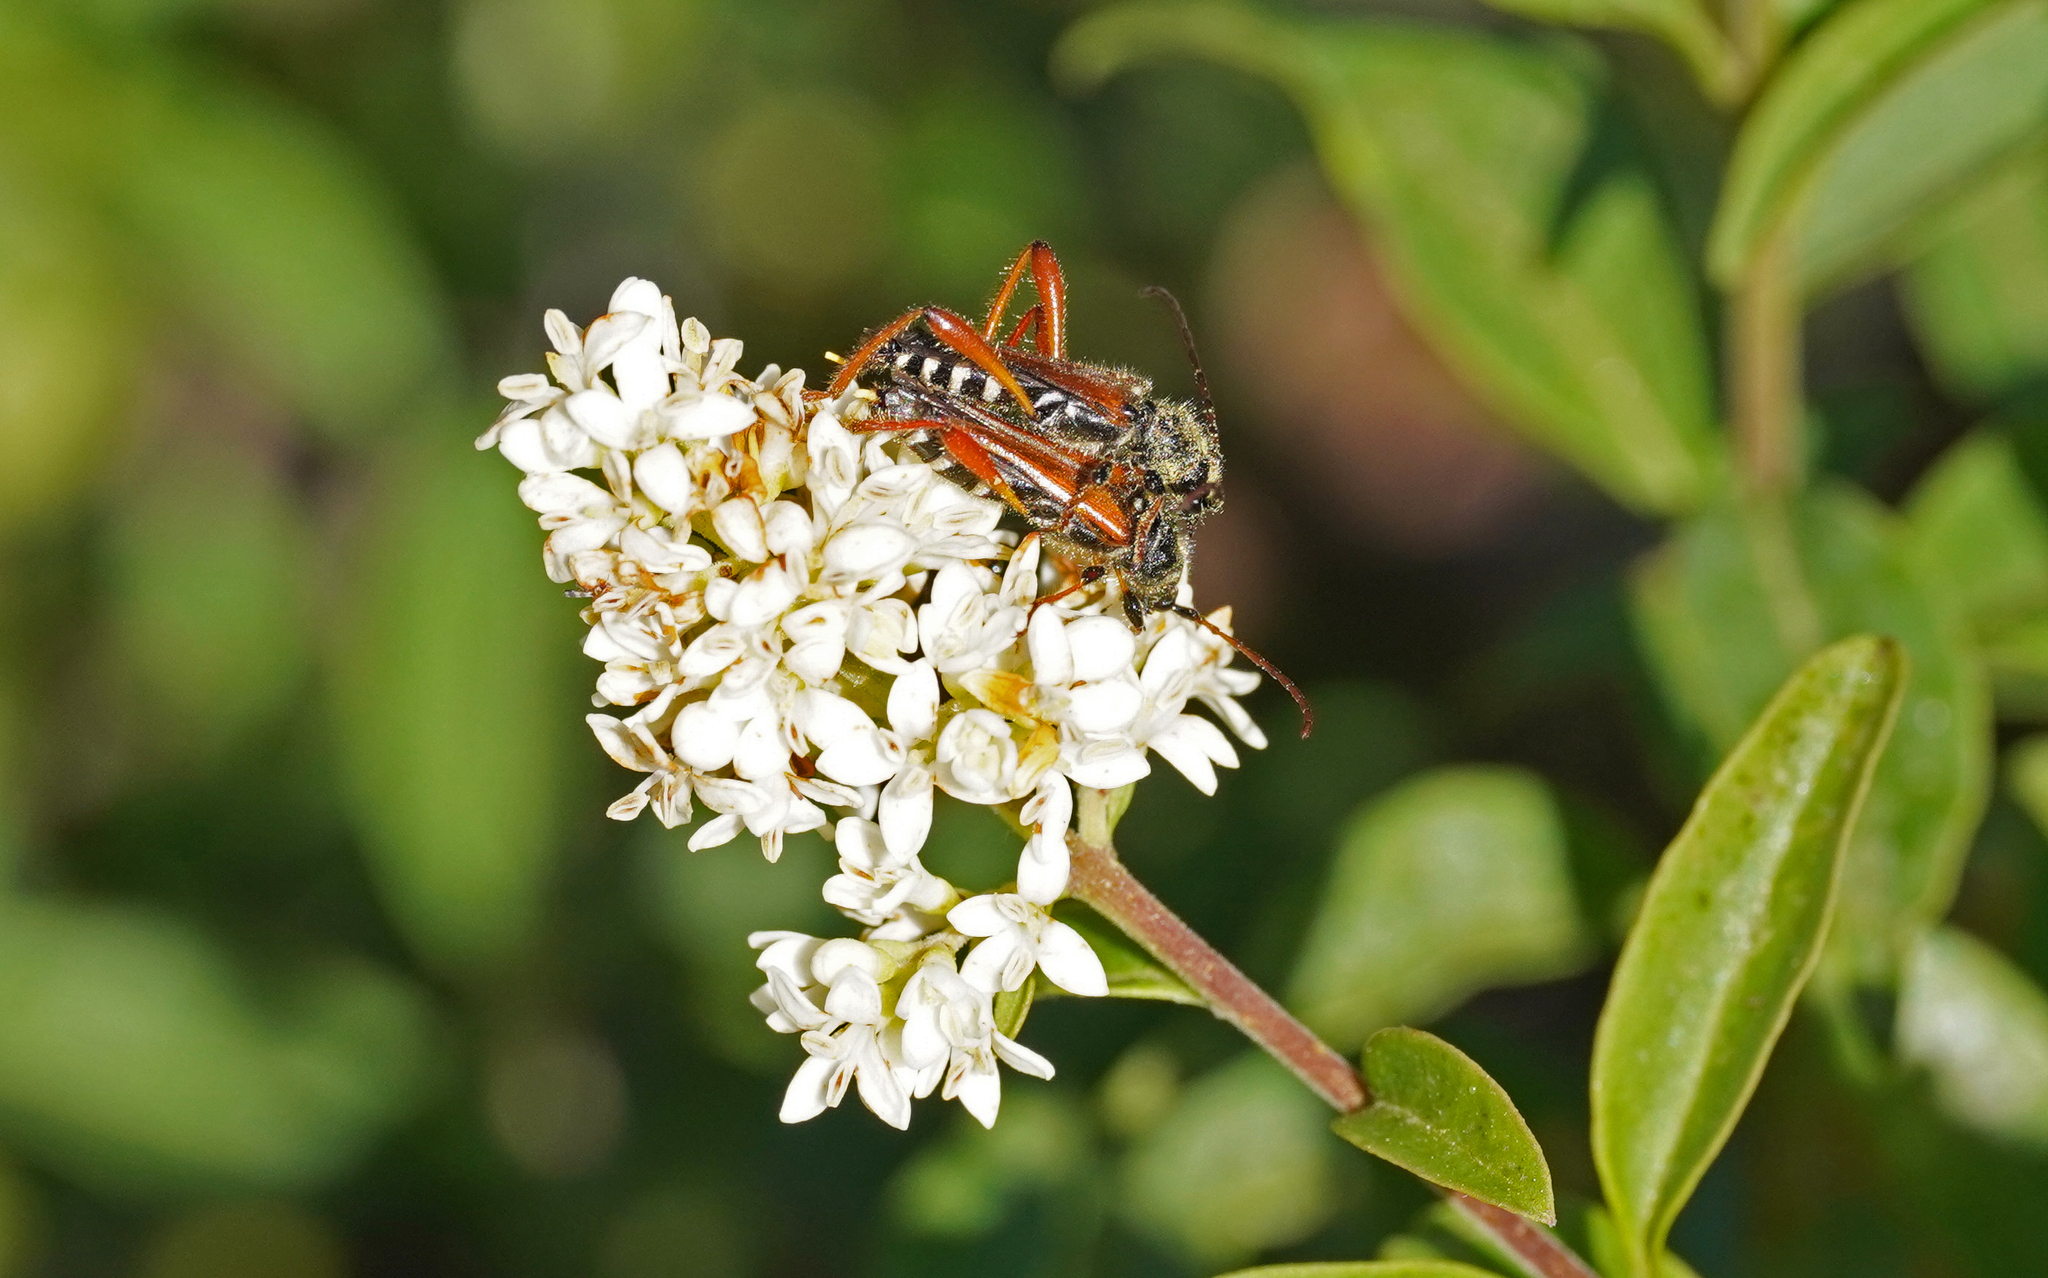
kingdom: Animalia
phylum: Arthropoda
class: Insecta
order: Coleoptera
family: Cerambycidae
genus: Stenopterus
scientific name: Stenopterus rufus
